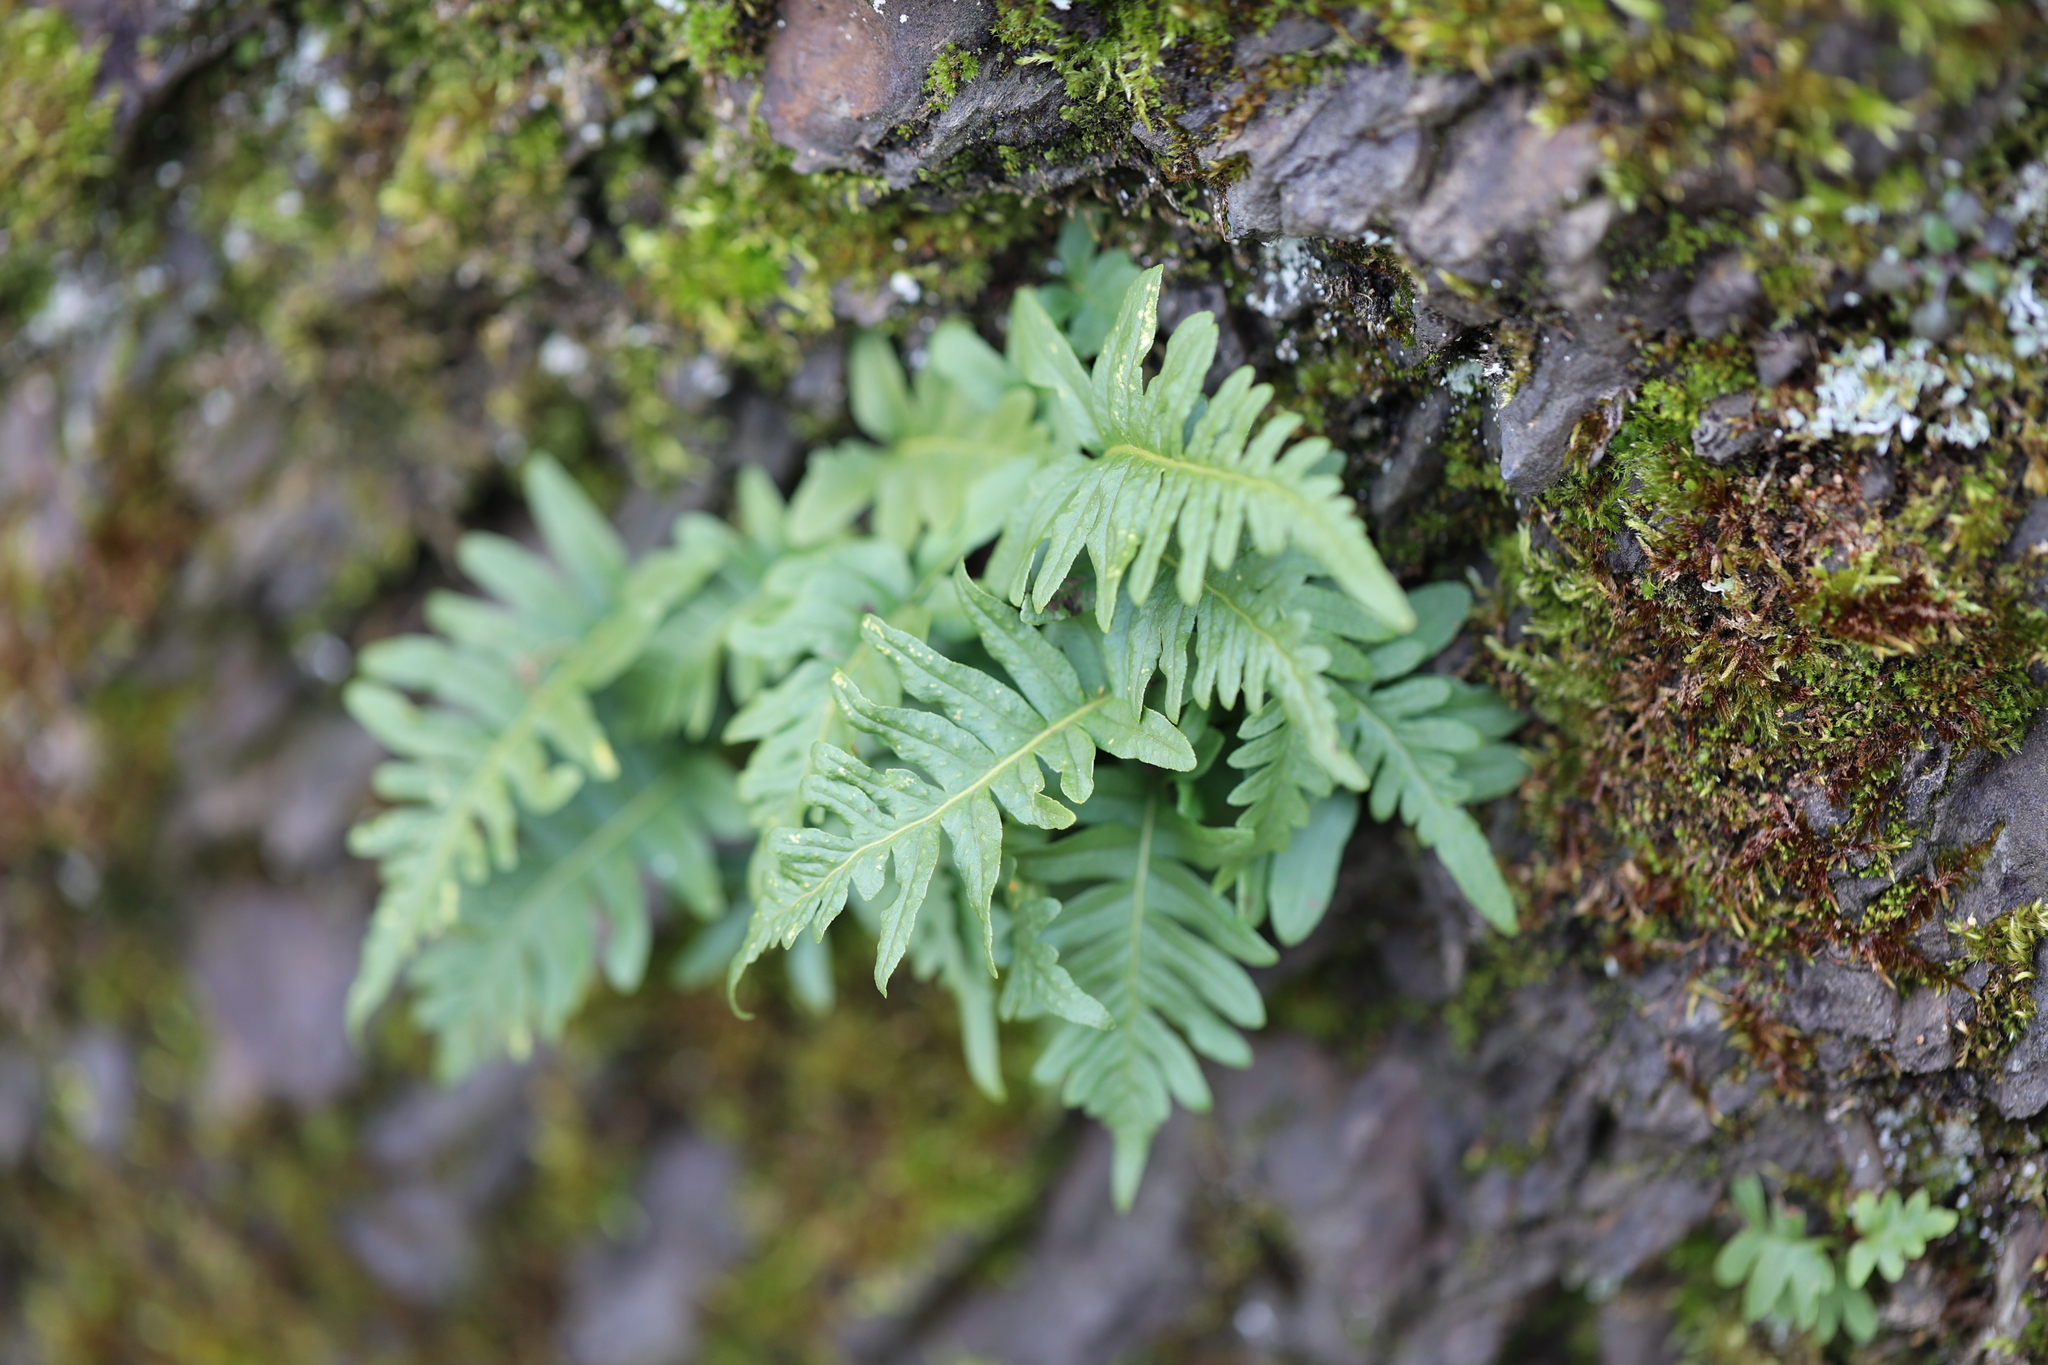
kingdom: Plantae
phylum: Tracheophyta
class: Polypodiopsida
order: Polypodiales
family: Polypodiaceae
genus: Polypodium
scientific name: Polypodium vulgare
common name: Common polypody
